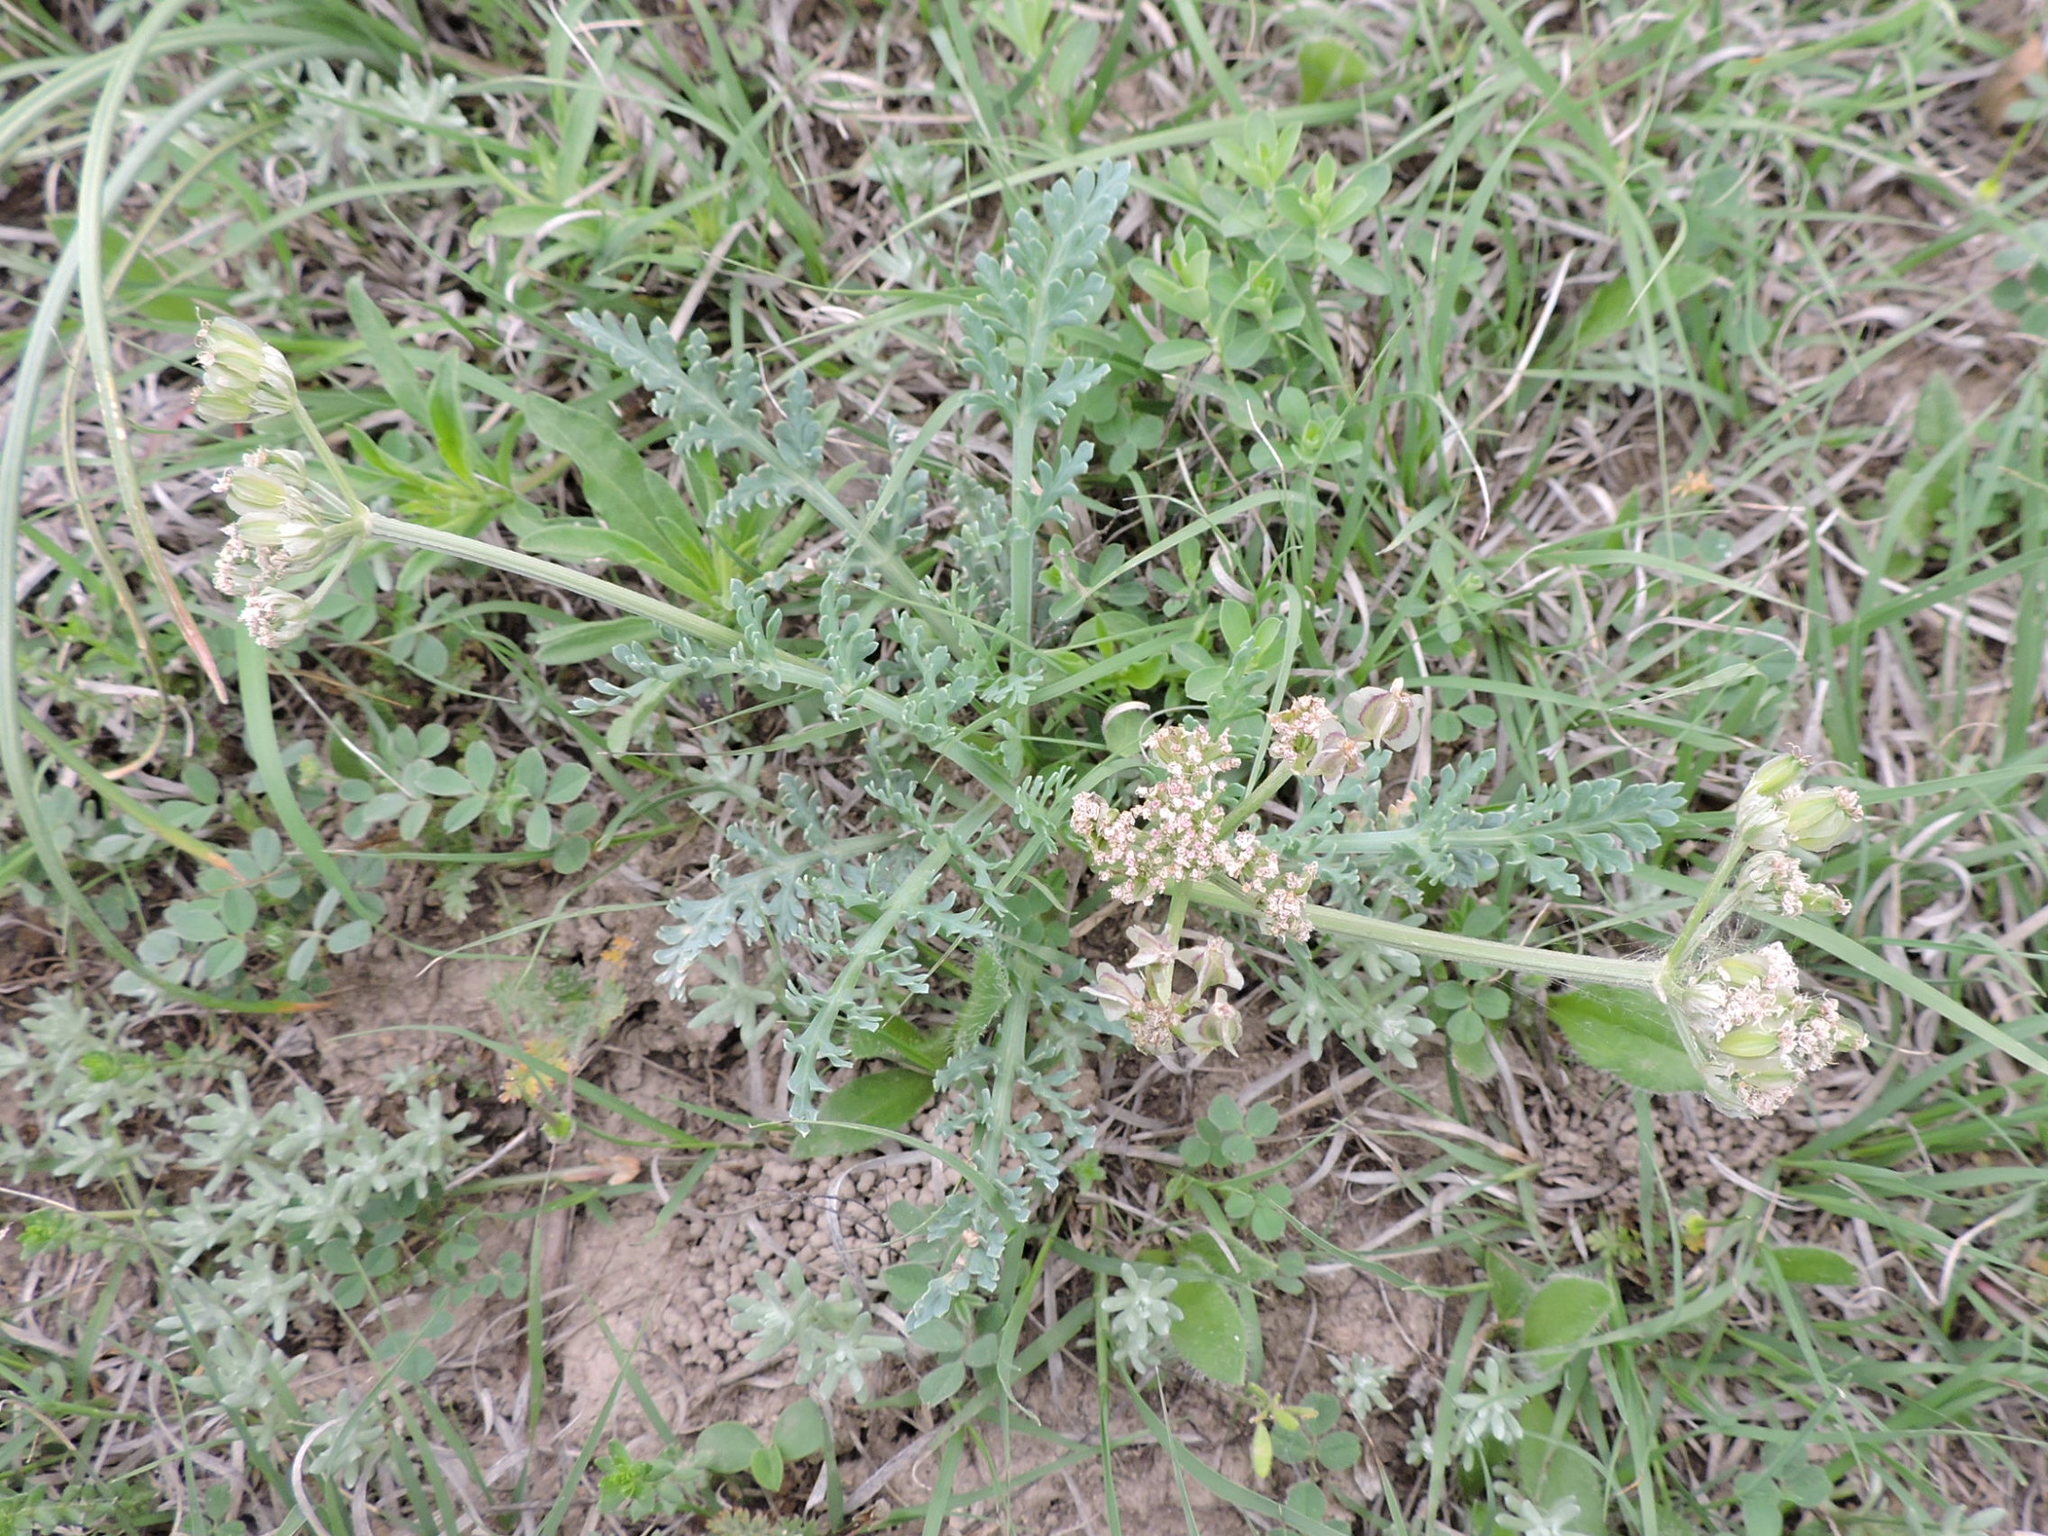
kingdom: Plantae
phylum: Tracheophyta
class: Magnoliopsida
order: Apiales
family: Apiaceae
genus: Vesper
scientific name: Vesper macrorhizus
